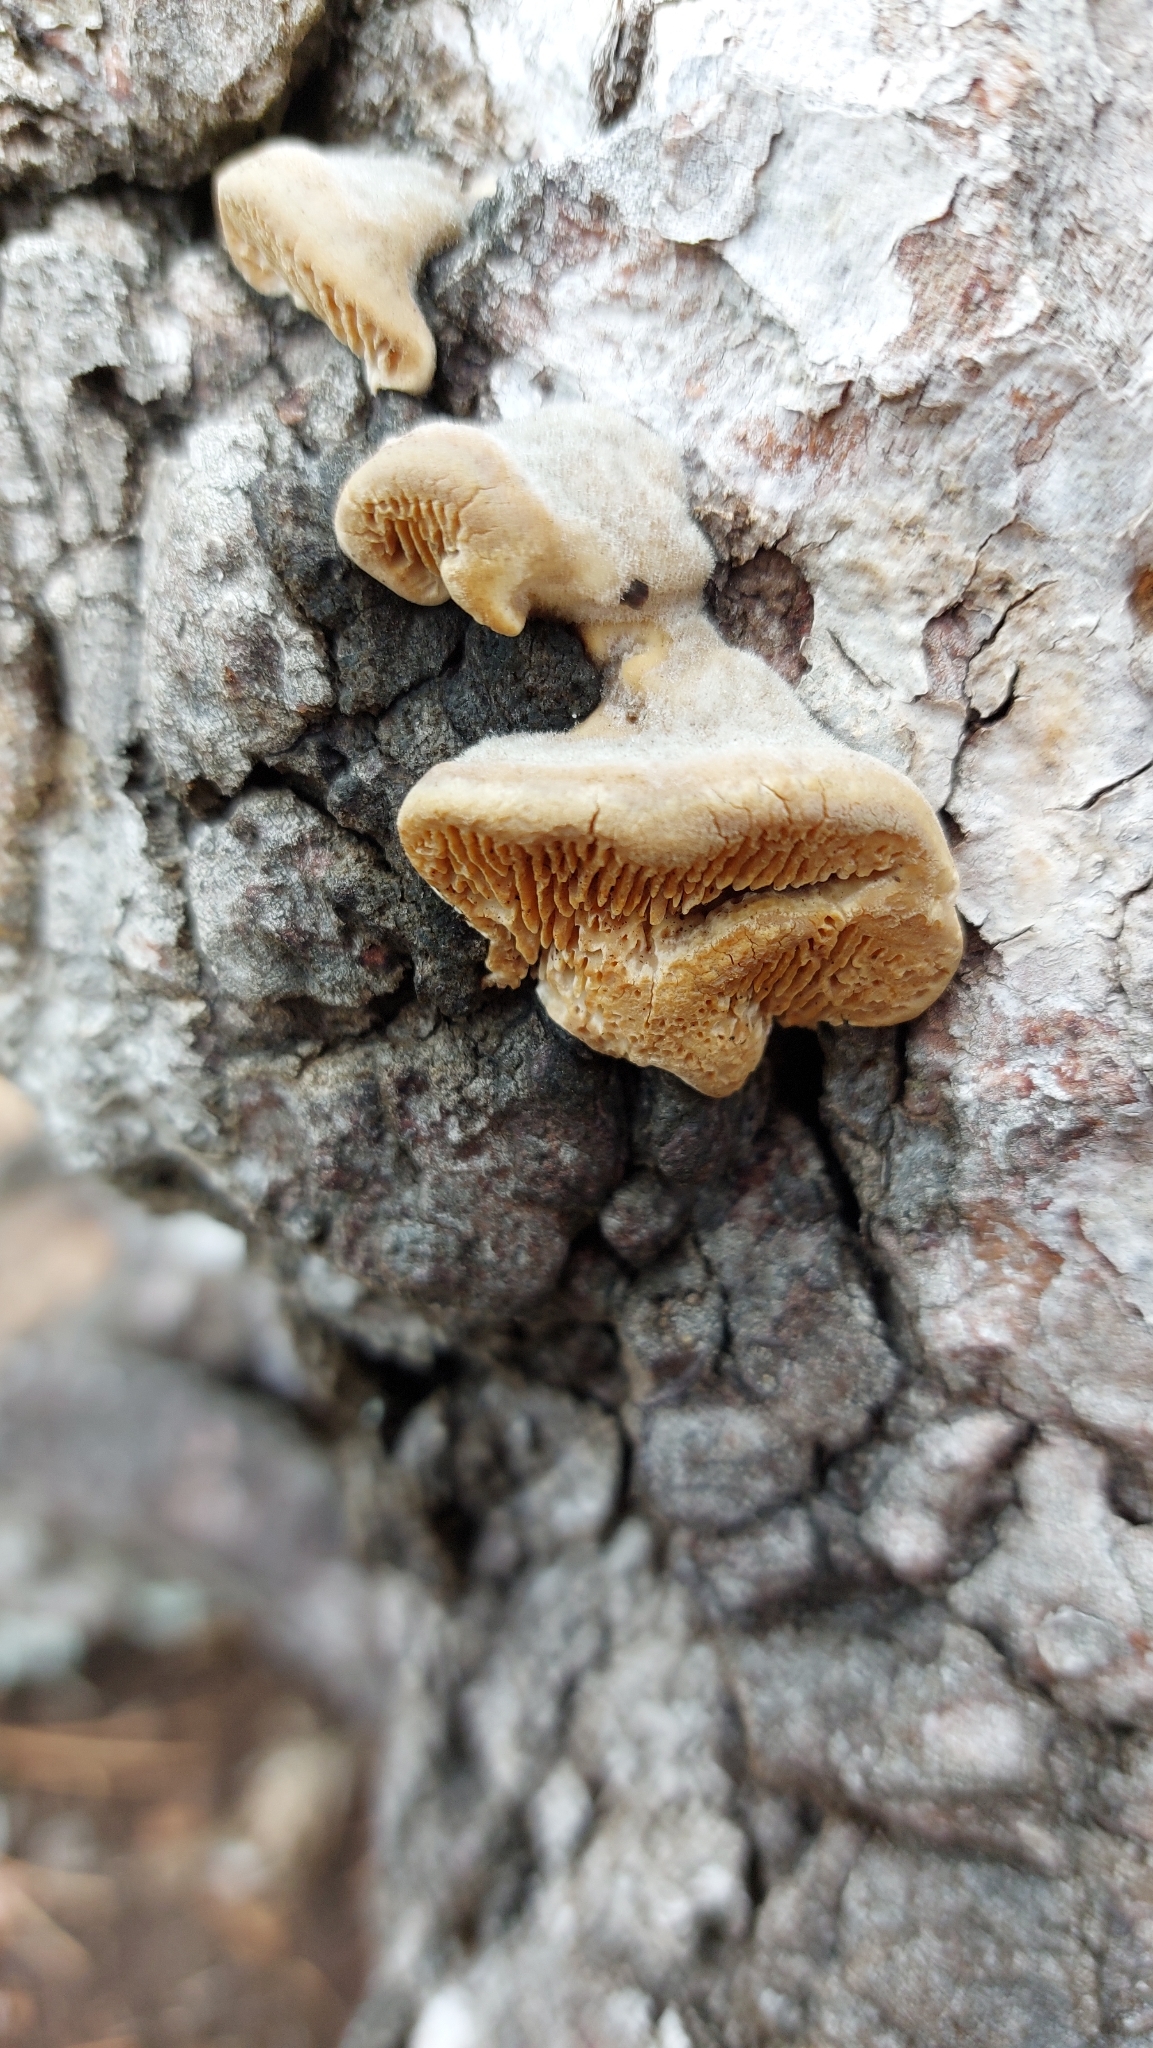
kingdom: Fungi
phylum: Basidiomycota
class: Agaricomycetes
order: Polyporales
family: Polyporaceae
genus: Lenzites
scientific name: Lenzites betulinus
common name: Birch mazegill
